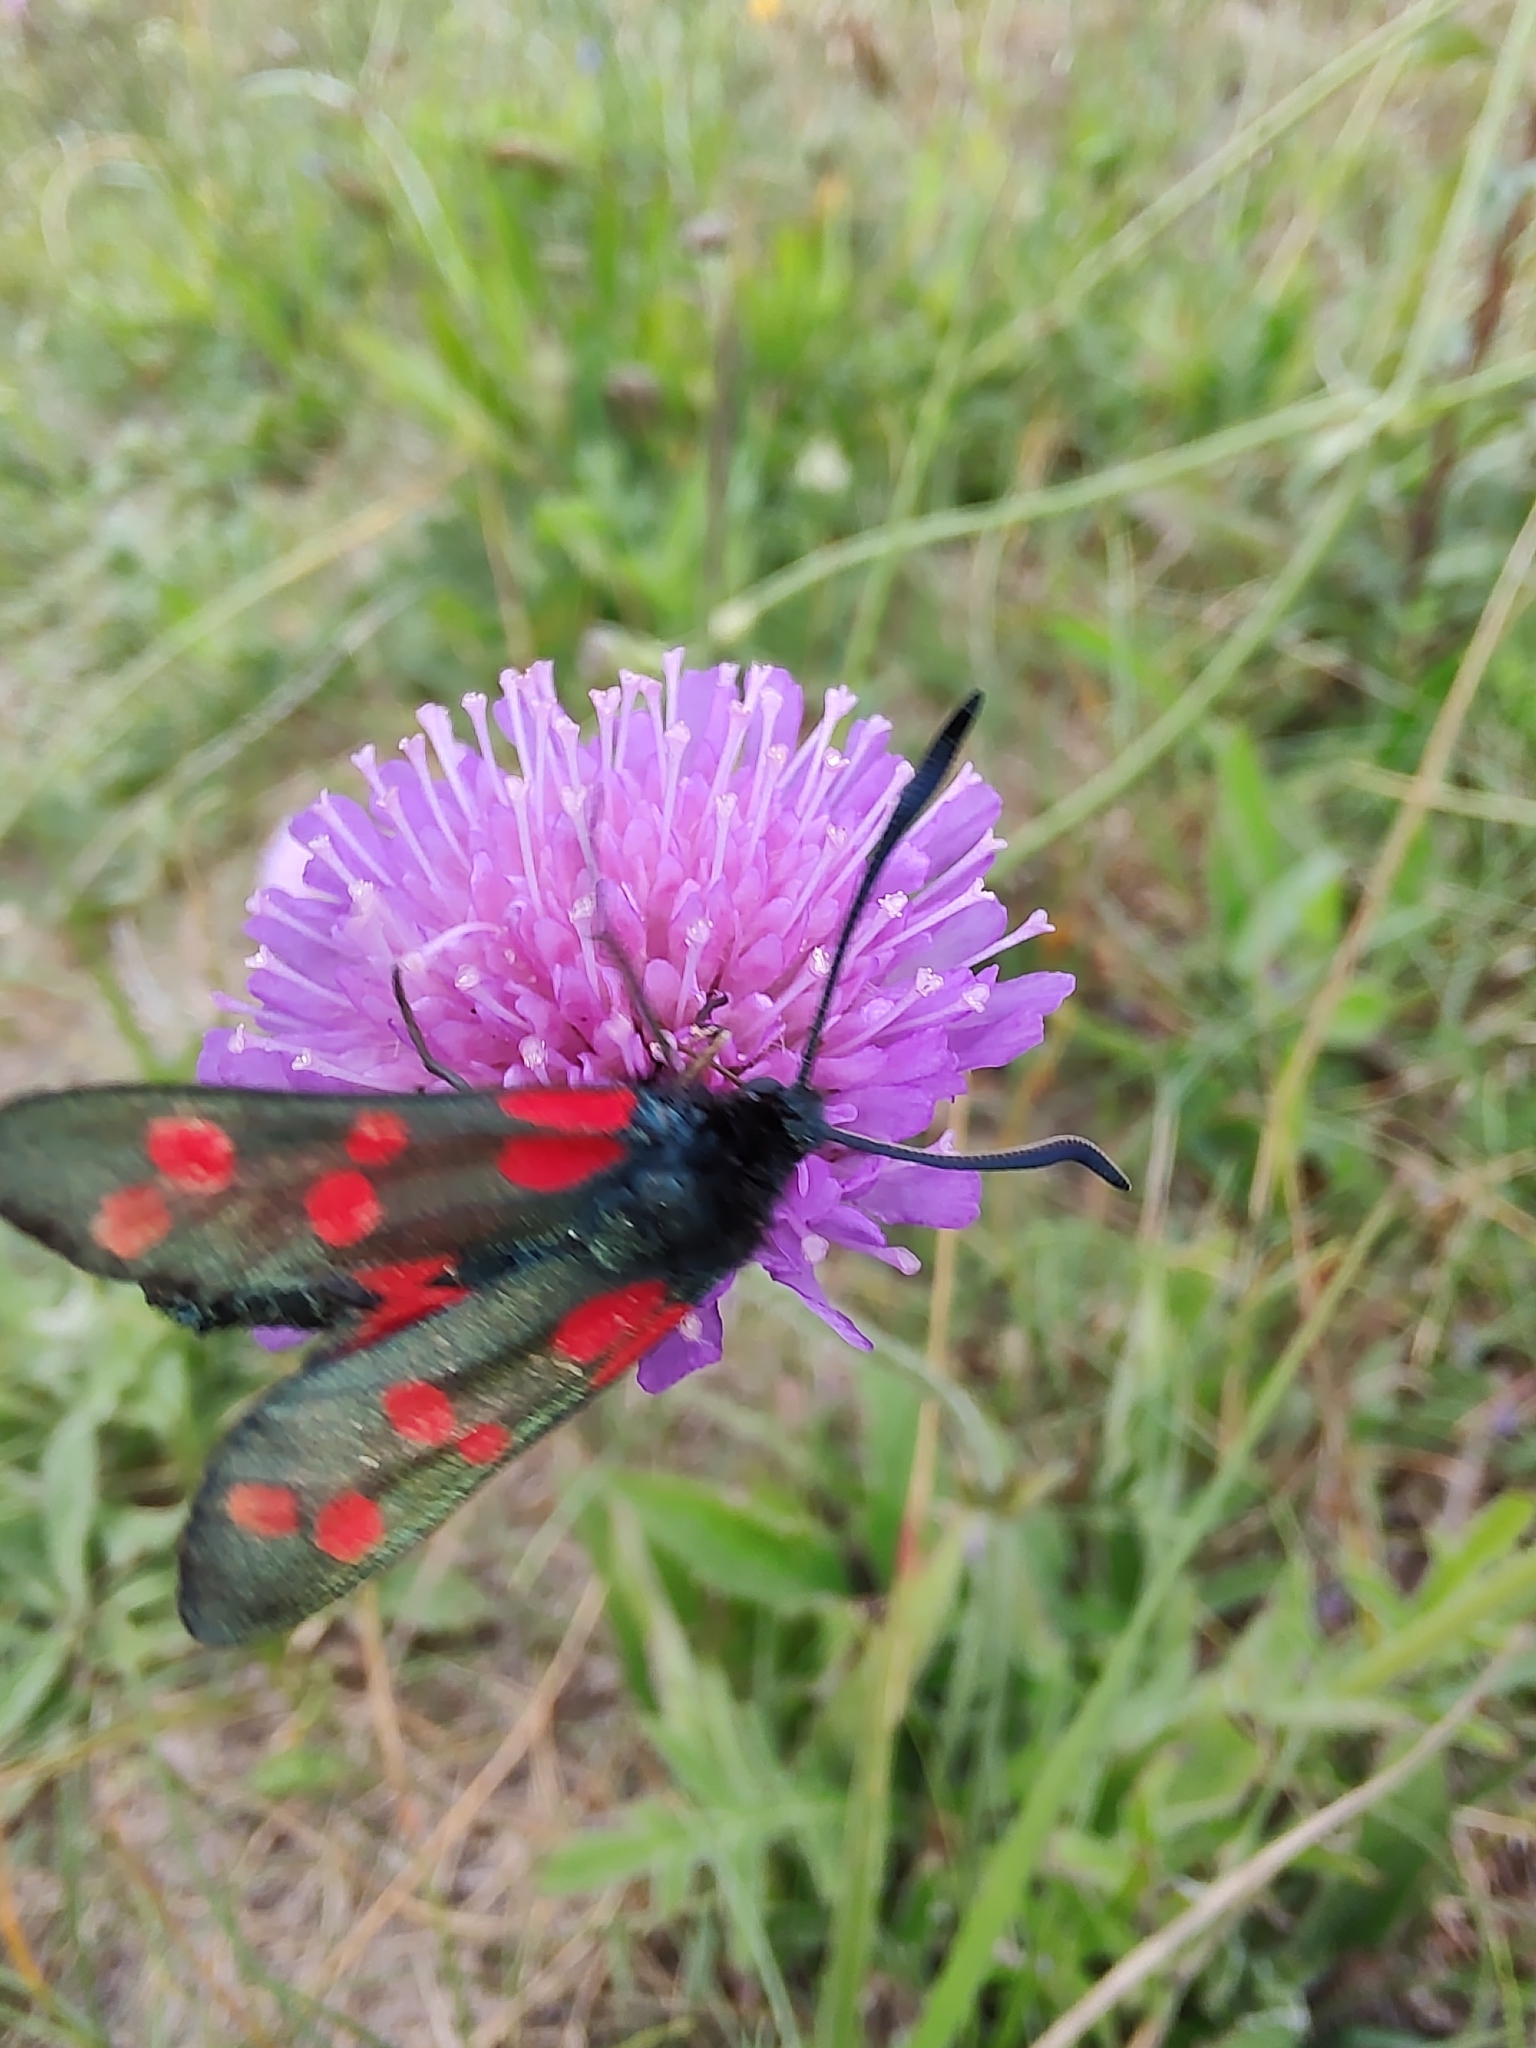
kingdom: Animalia
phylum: Arthropoda
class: Insecta
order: Lepidoptera
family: Zygaenidae
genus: Zygaena
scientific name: Zygaena filipendulae
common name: Six-spot burnet
